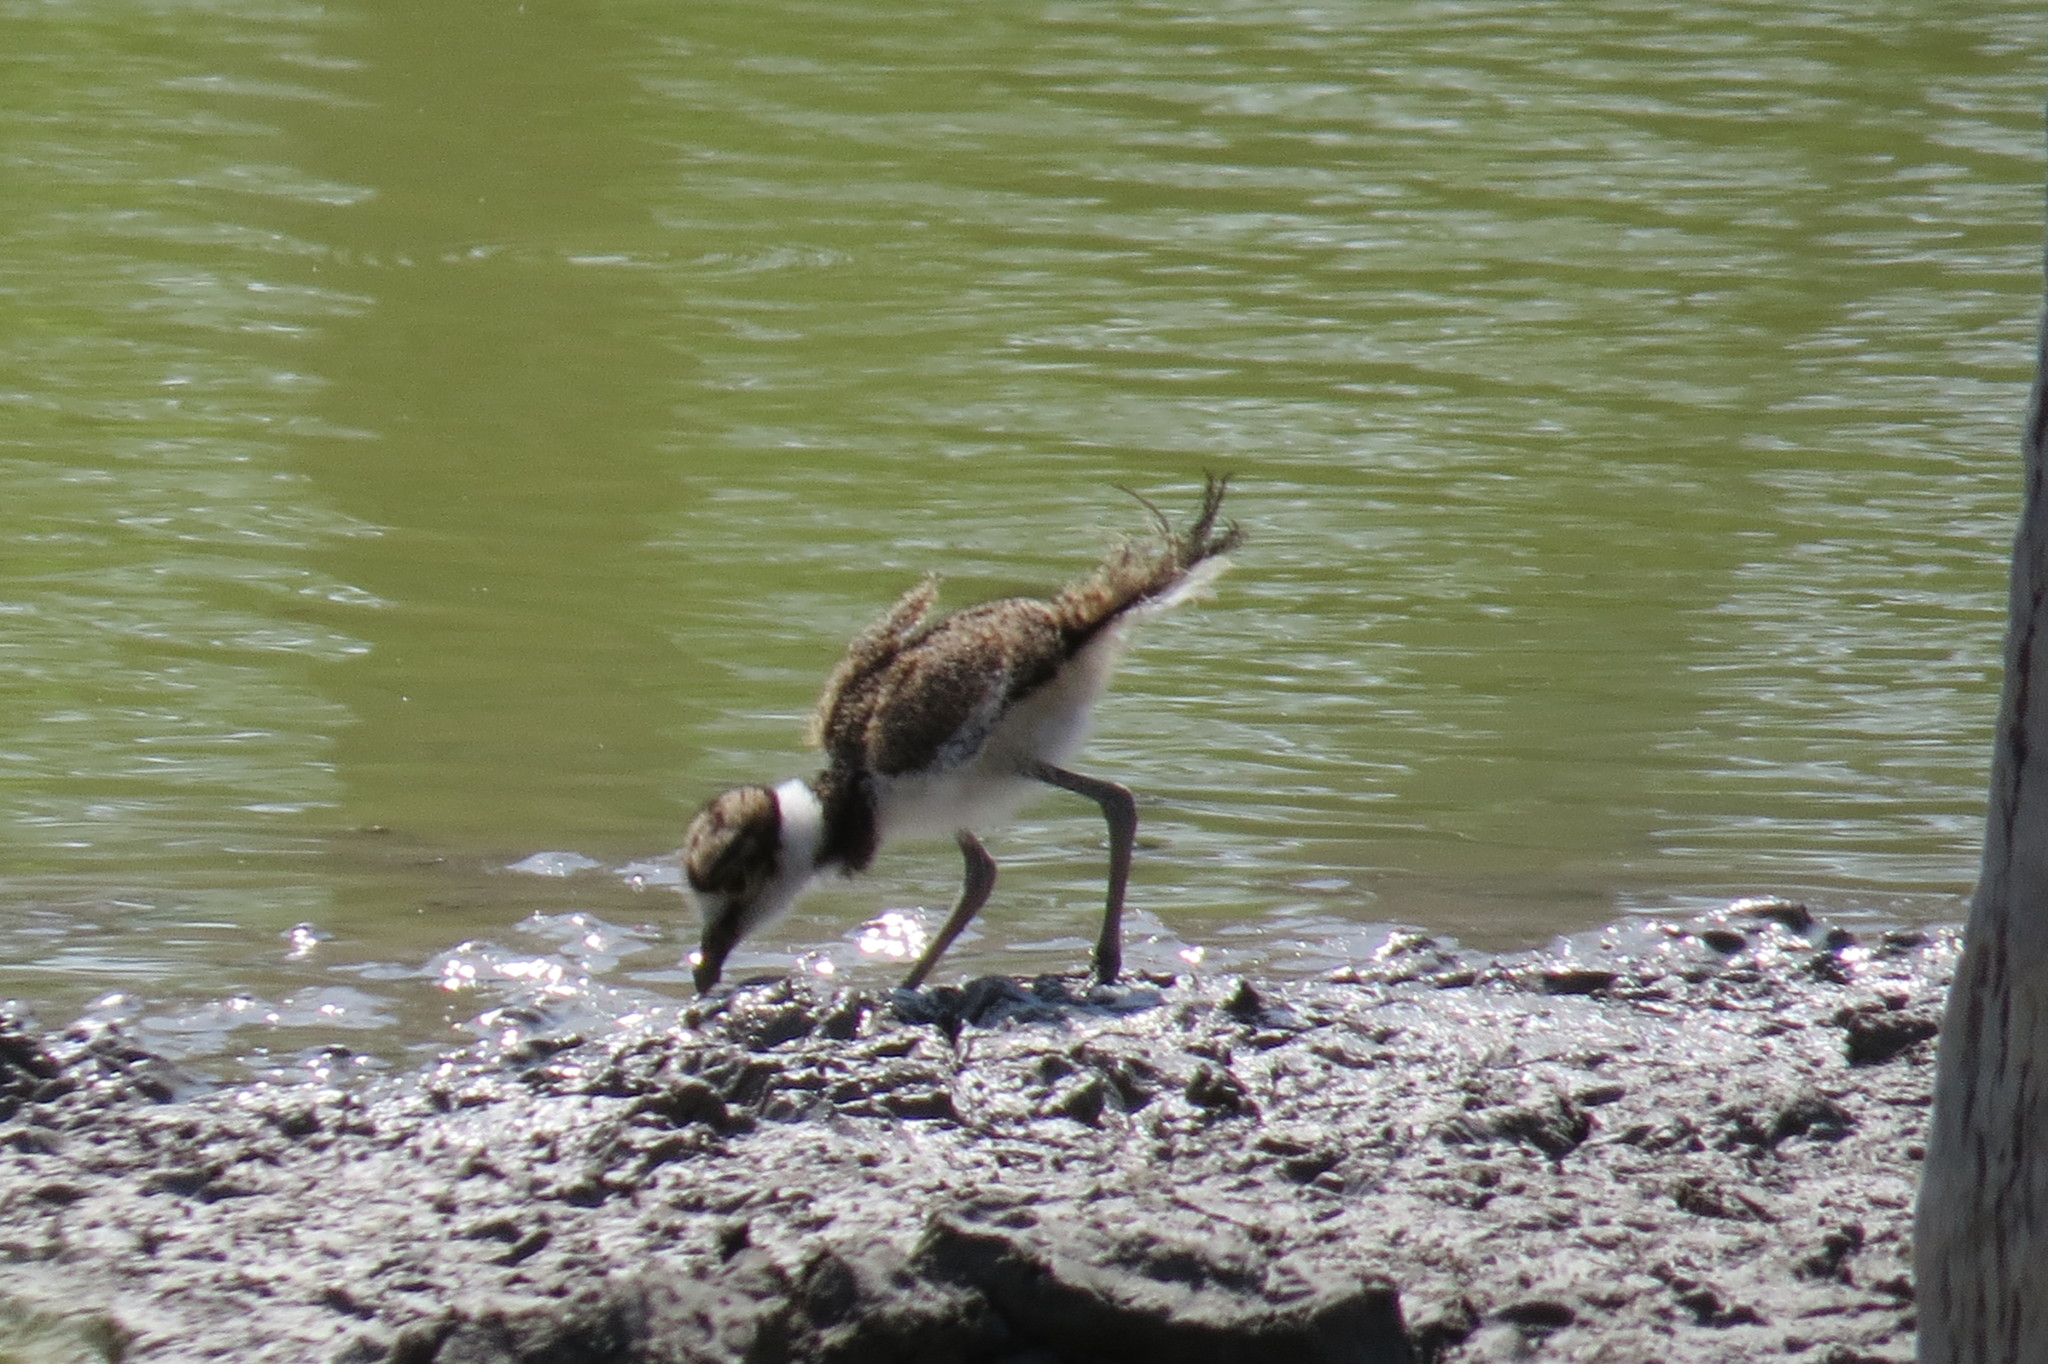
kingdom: Animalia
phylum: Chordata
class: Aves
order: Charadriiformes
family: Charadriidae
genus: Charadrius
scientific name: Charadrius vociferus
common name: Killdeer
